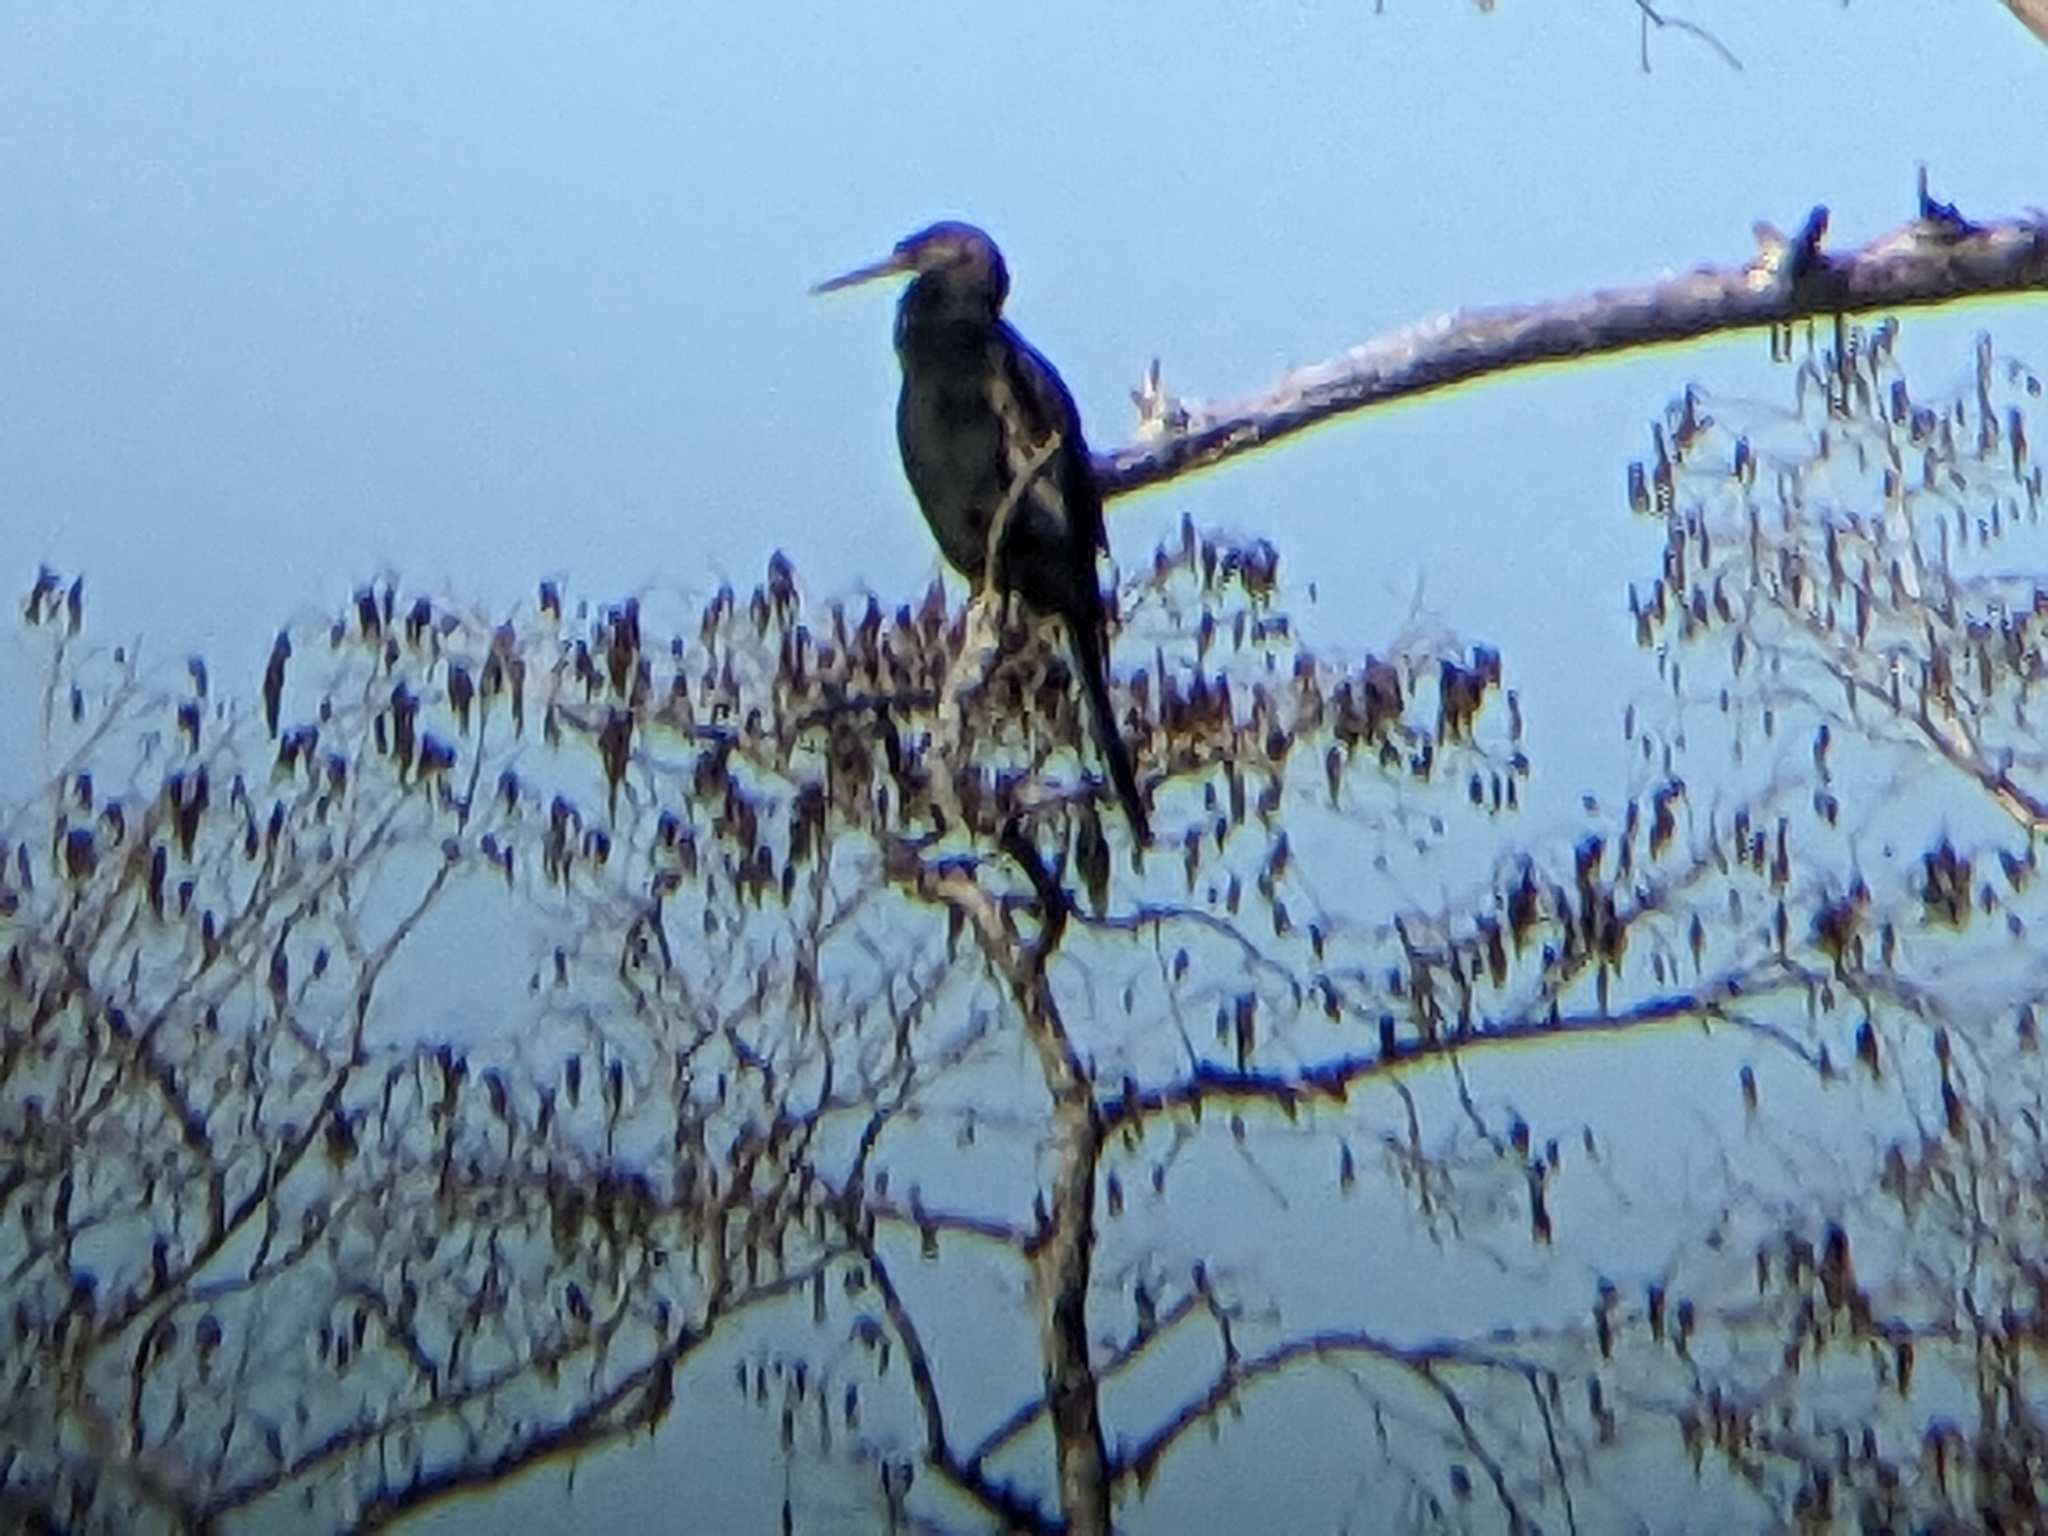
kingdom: Animalia
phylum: Chordata
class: Aves
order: Suliformes
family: Anhingidae
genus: Anhinga
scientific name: Anhinga anhinga
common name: Anhinga
